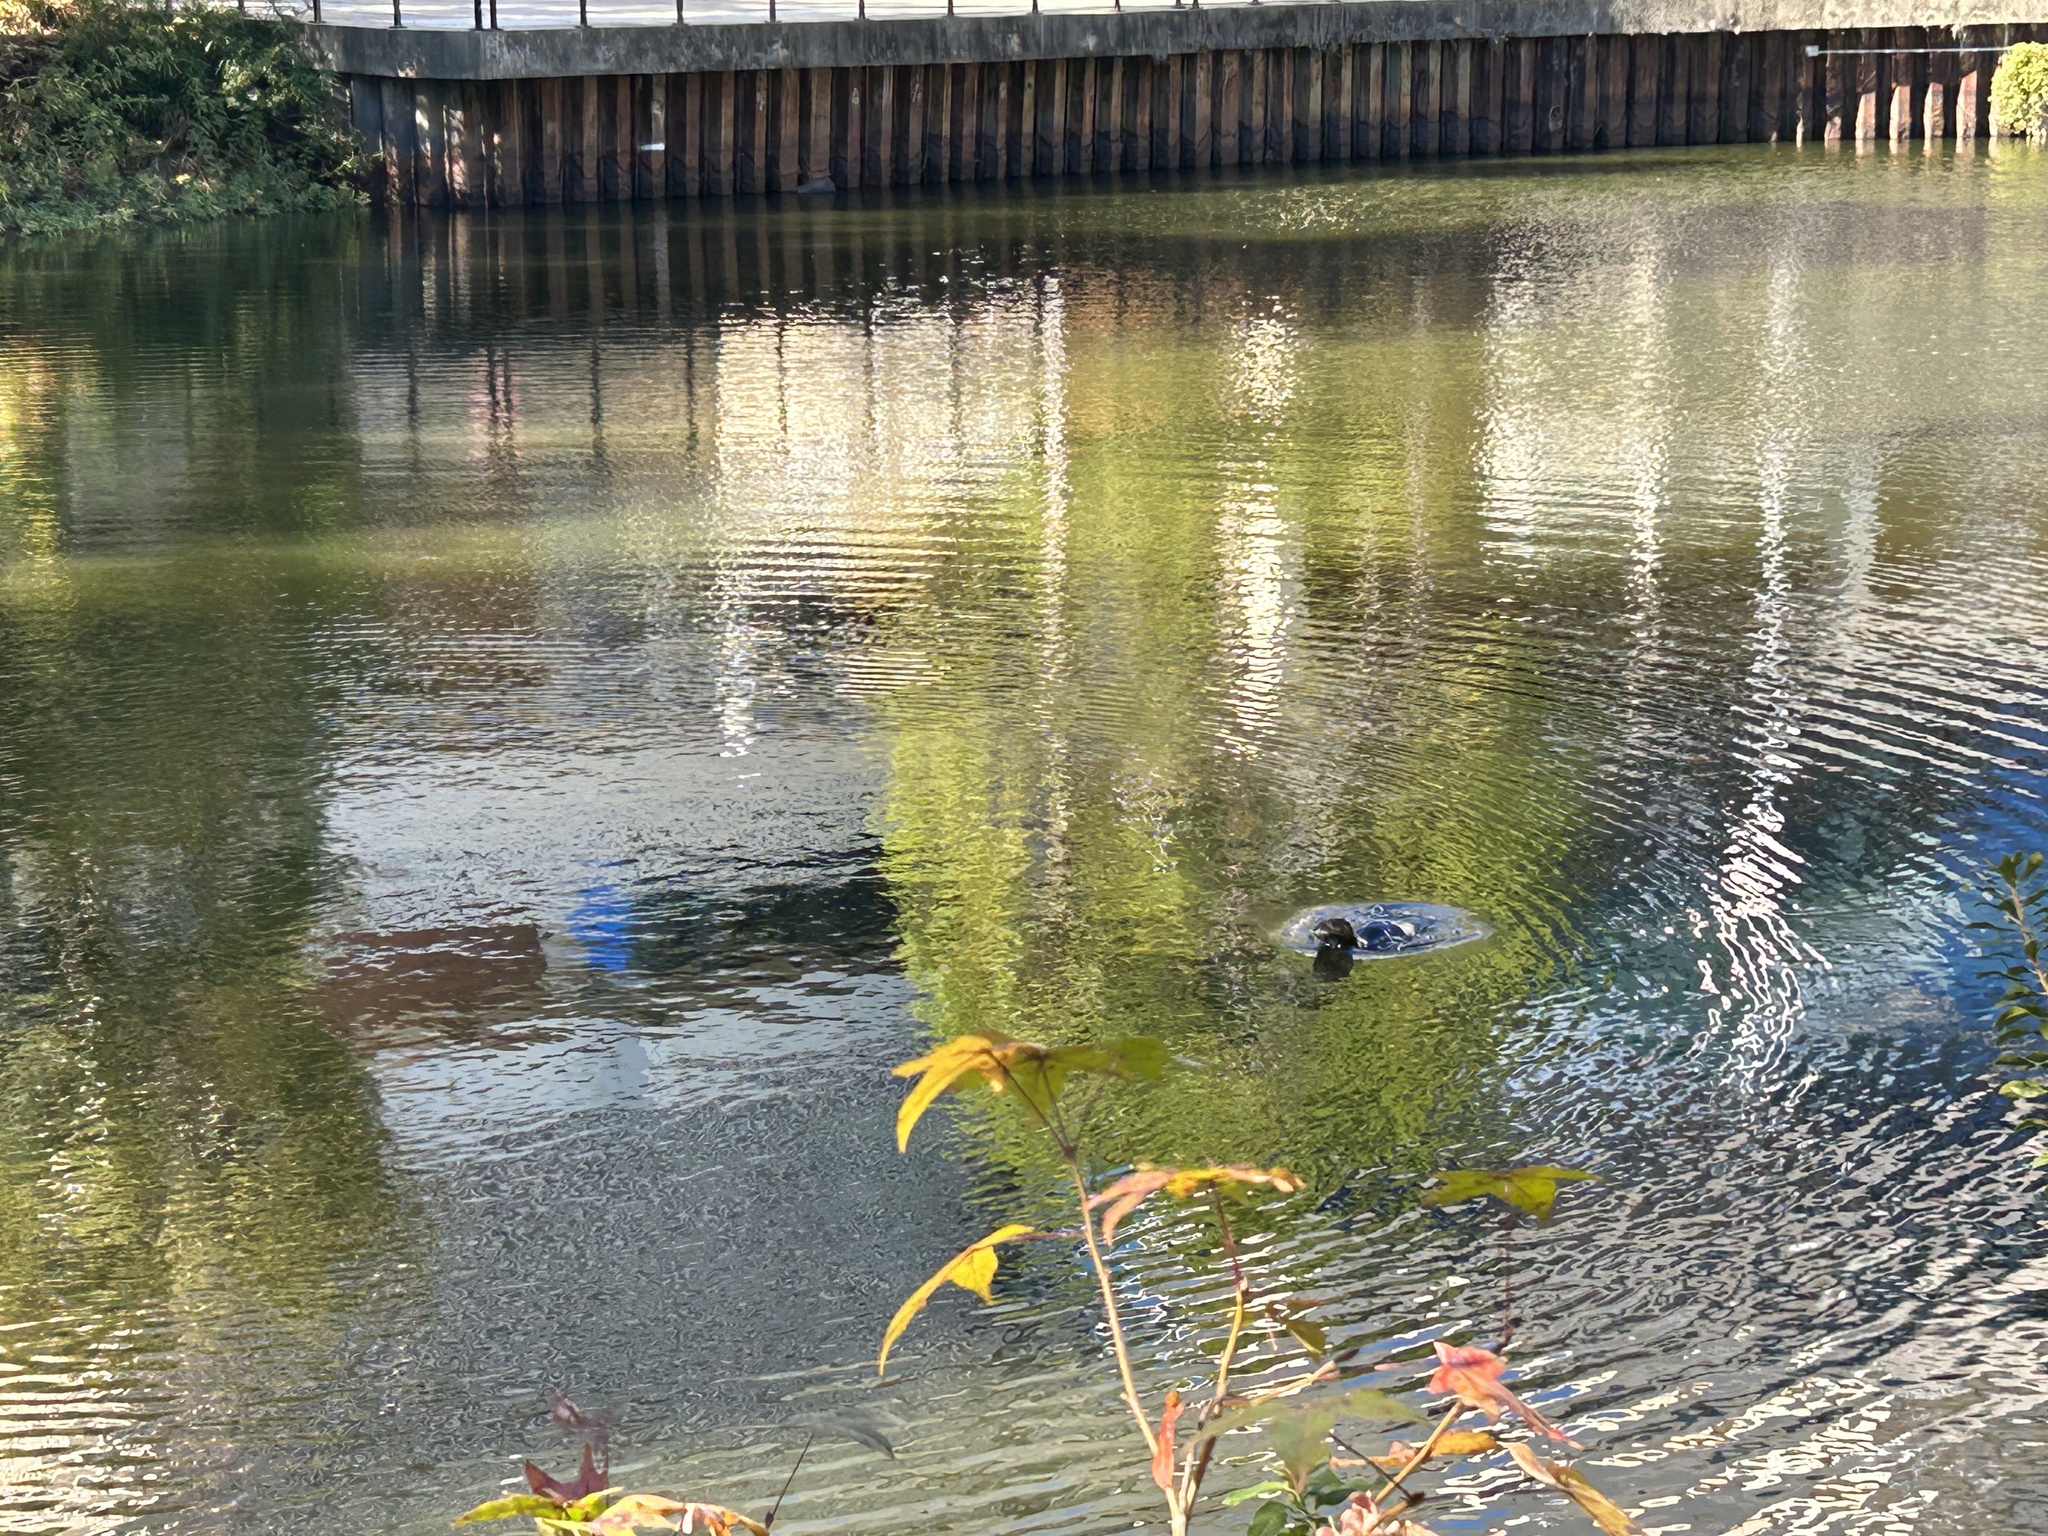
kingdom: Animalia
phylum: Chordata
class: Mammalia
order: Carnivora
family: Mustelidae
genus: Lontra
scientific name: Lontra canadensis
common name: North american river otter
